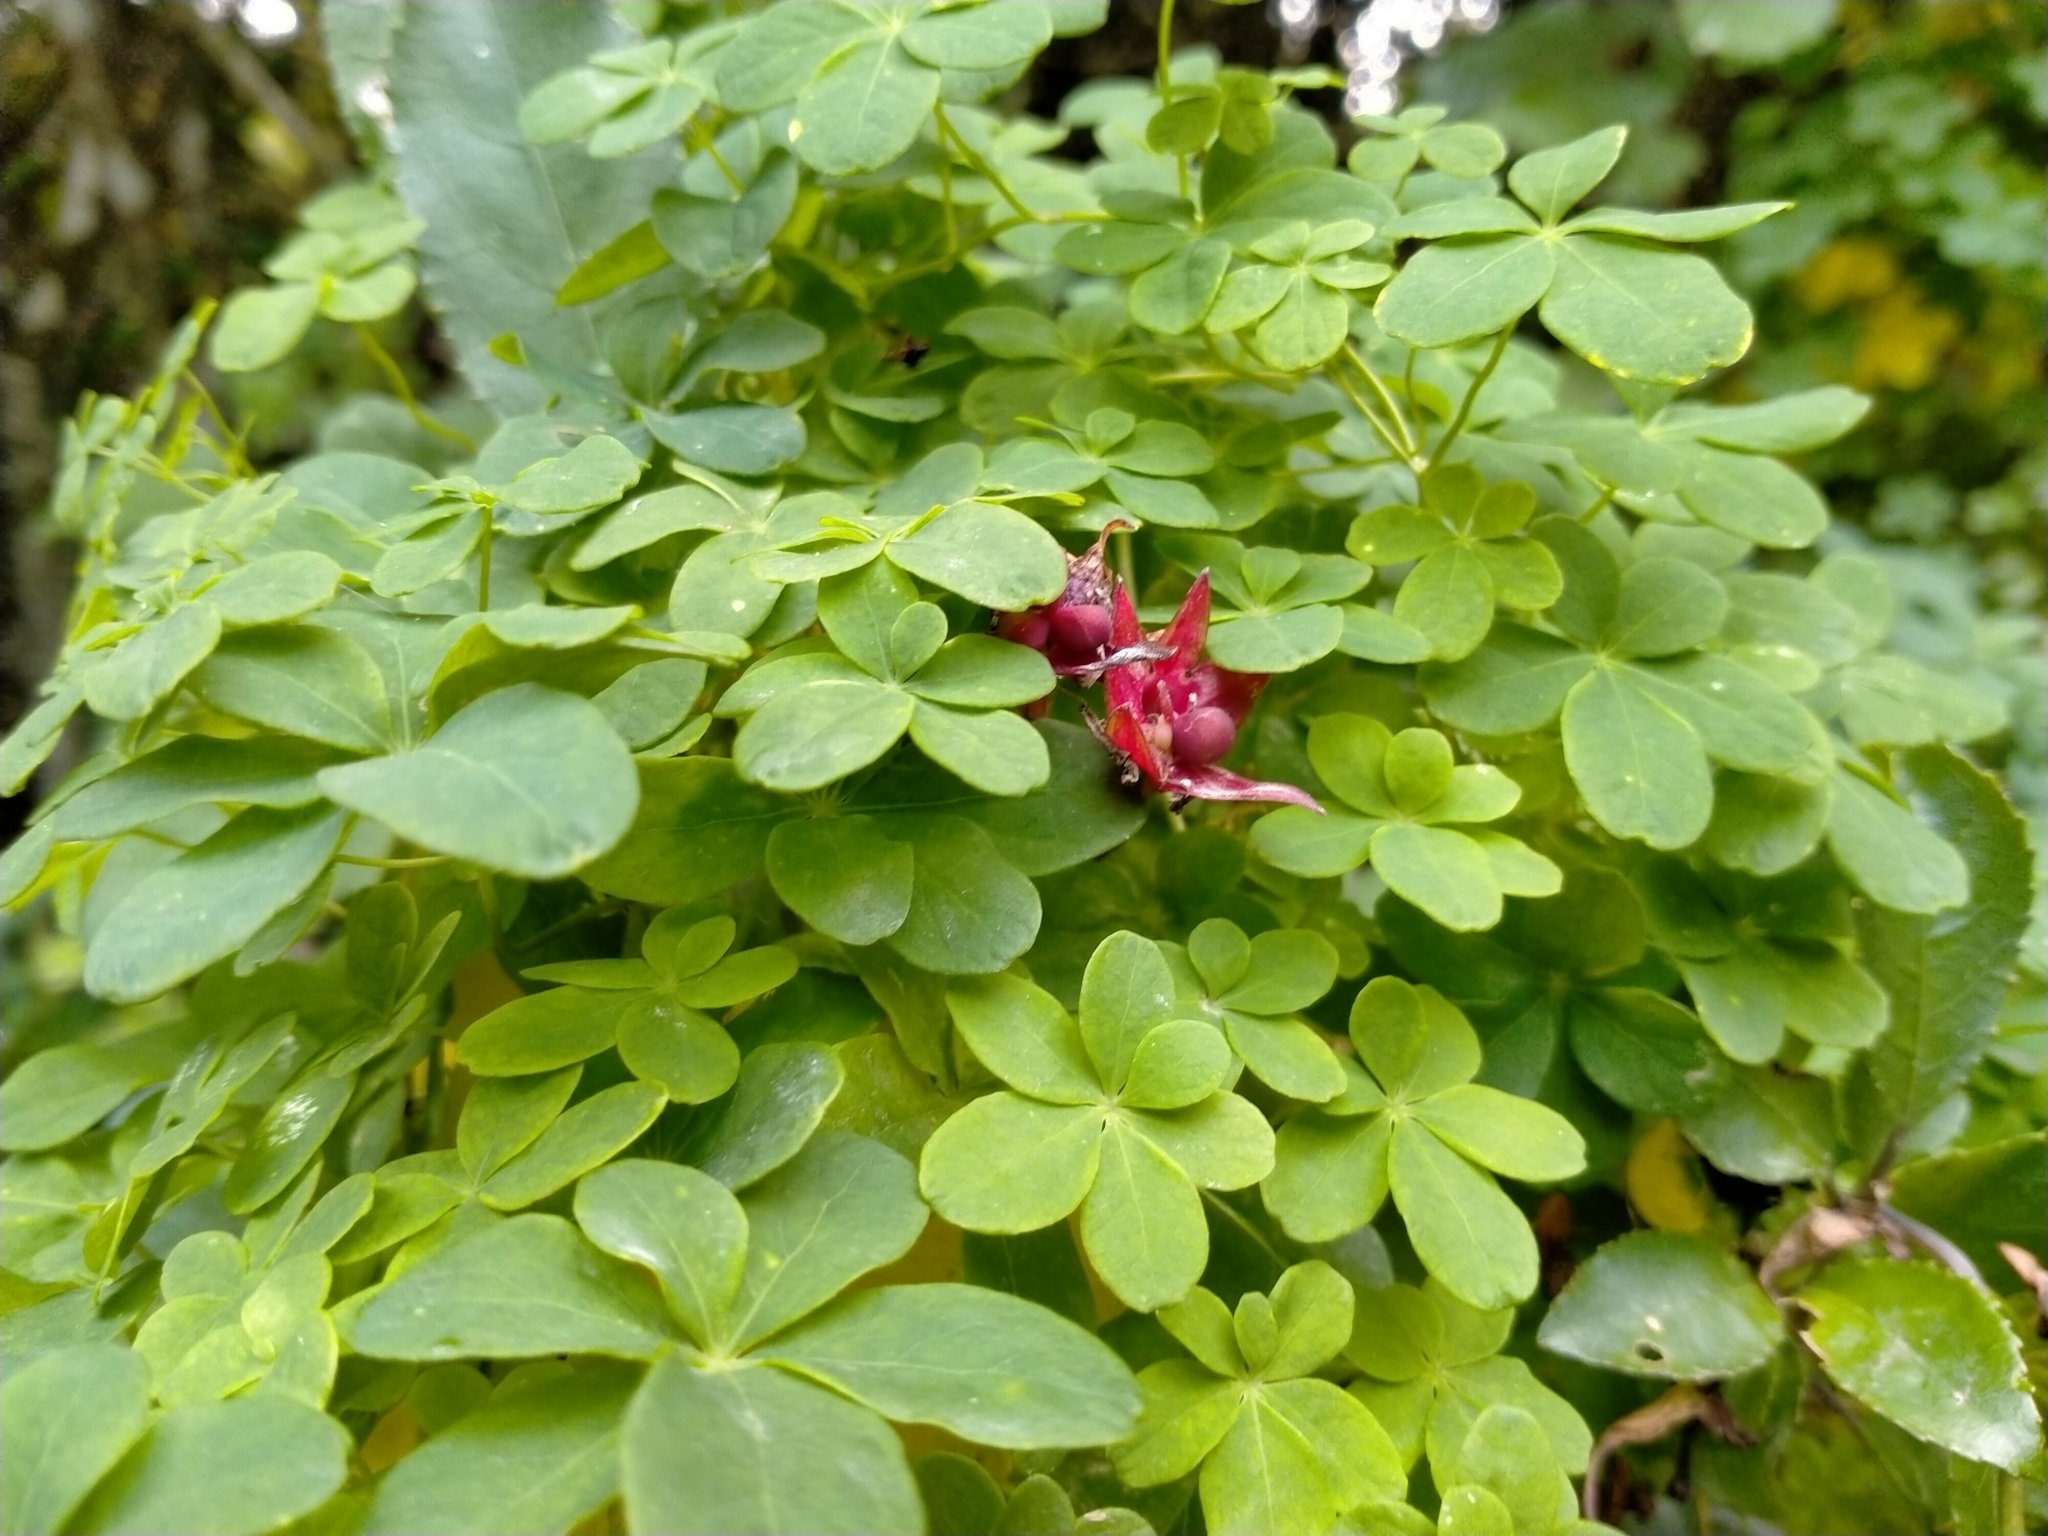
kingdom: Plantae
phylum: Tracheophyta
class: Magnoliopsida
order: Brassicales
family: Tropaeolaceae
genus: Tropaeolum
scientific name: Tropaeolum speciosum
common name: Flame nasturtium
